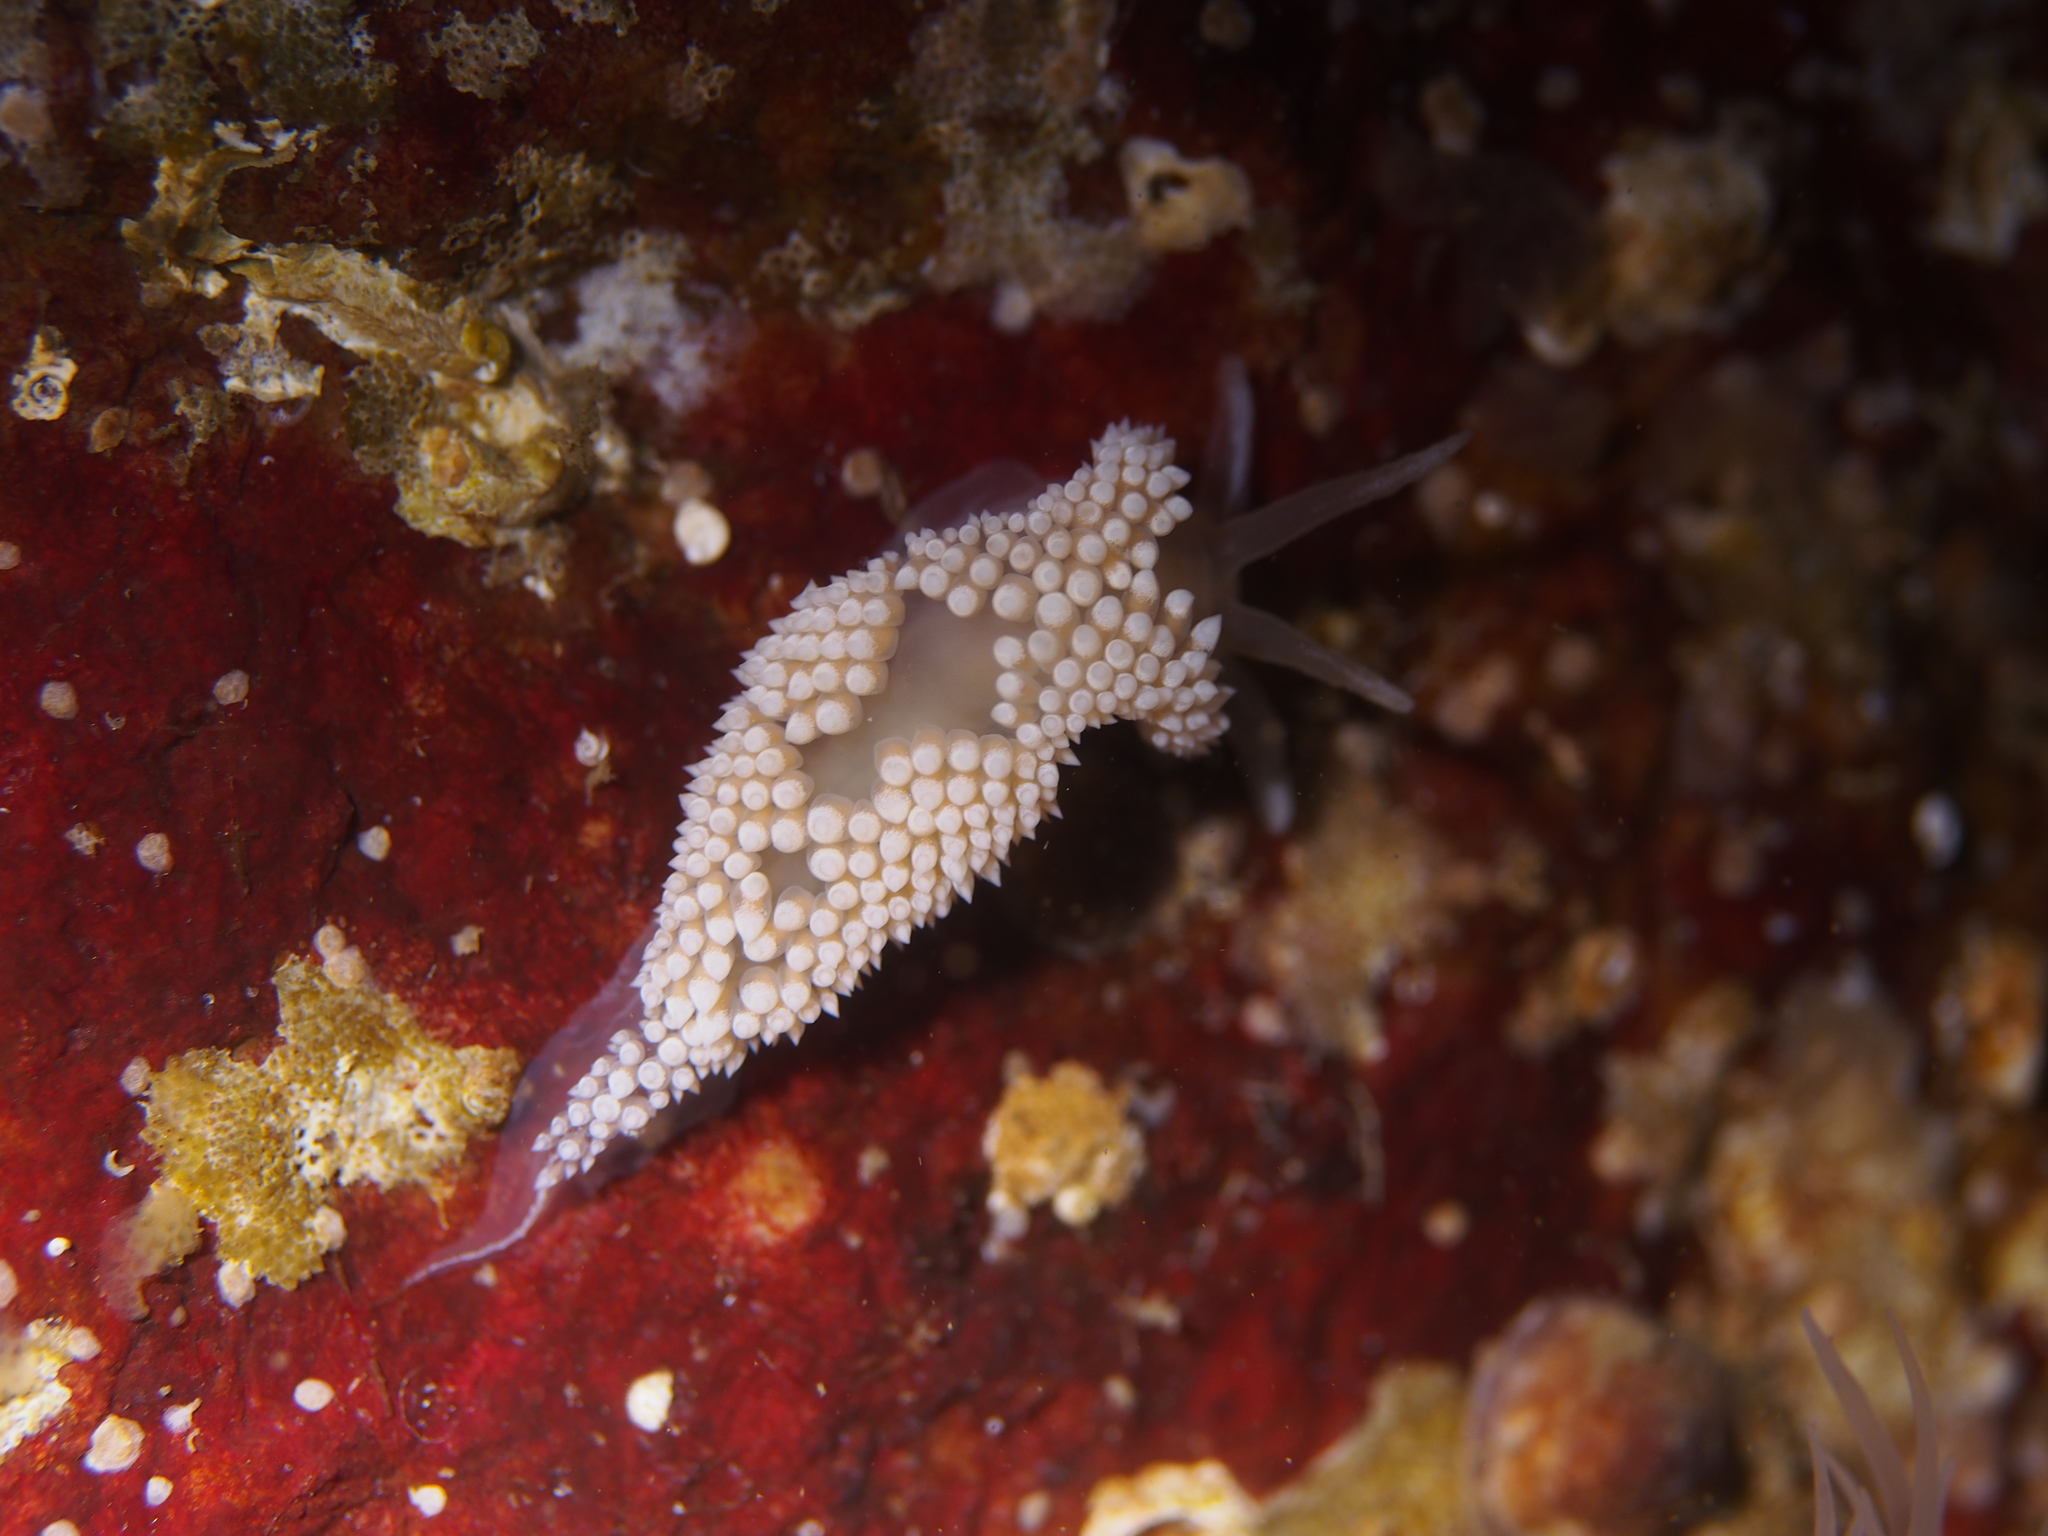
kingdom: Animalia
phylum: Mollusca
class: Gastropoda
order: Nudibranchia
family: Coryphellidae
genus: Coryphella
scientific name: Coryphella verrucosa
